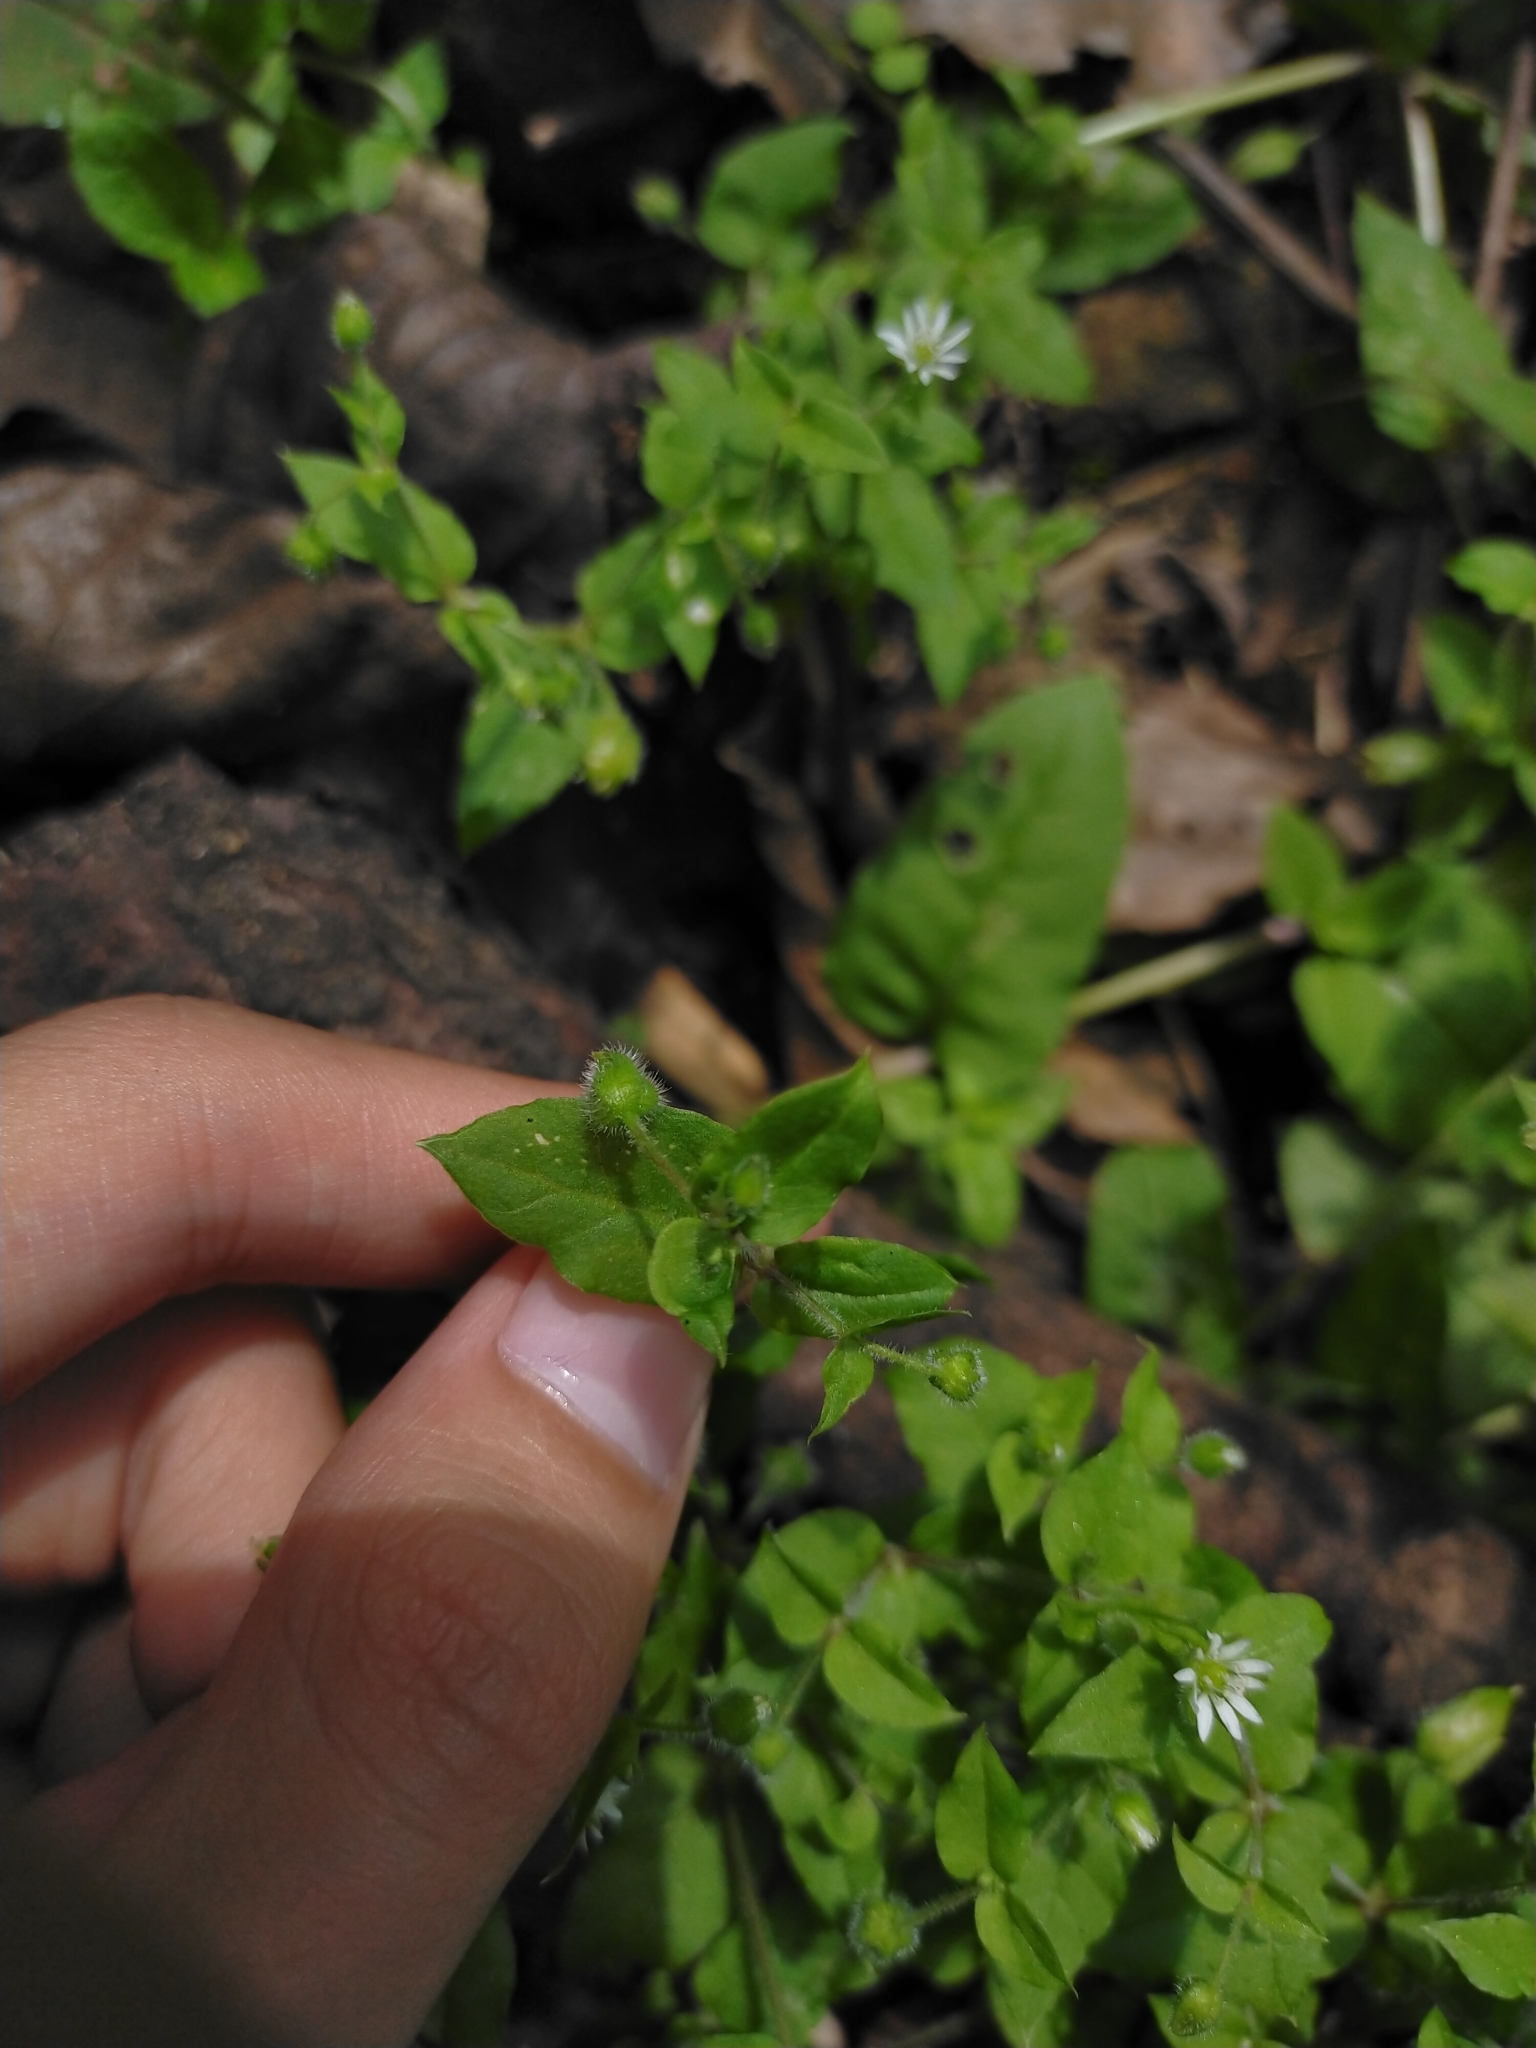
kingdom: Plantae
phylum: Tracheophyta
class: Magnoliopsida
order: Caryophyllales
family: Caryophyllaceae
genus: Stellaria
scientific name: Stellaria aquatica
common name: Water chickweed
